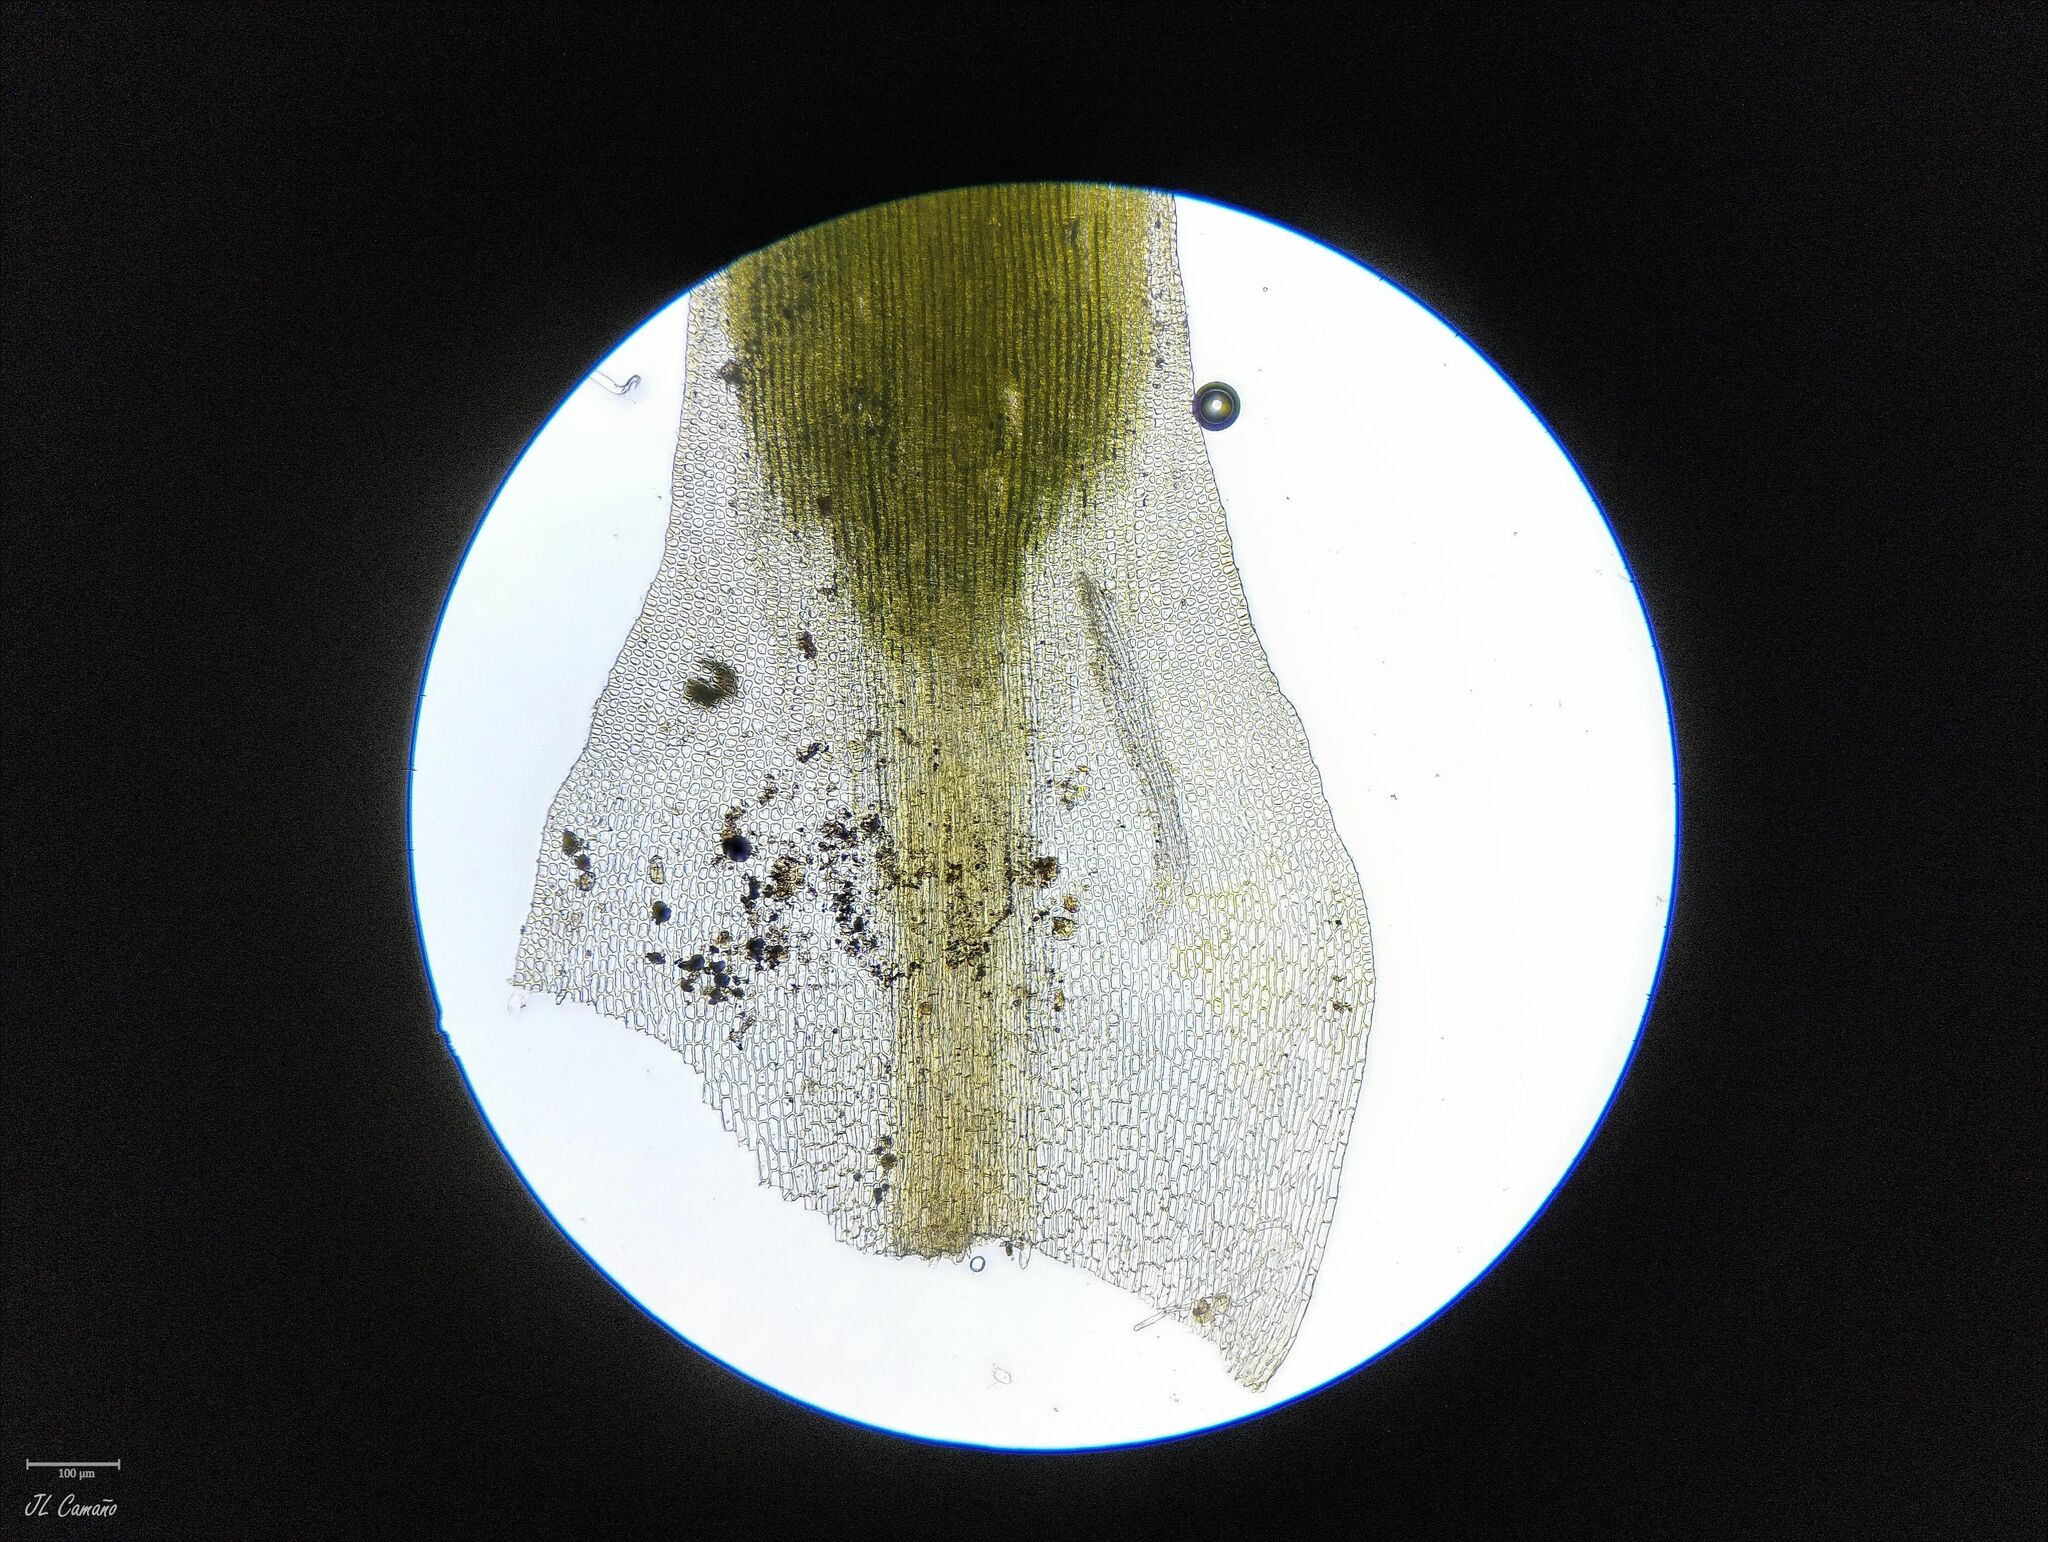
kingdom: Plantae
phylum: Bryophyta
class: Polytrichopsida
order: Polytrichales
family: Polytrichaceae
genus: Pogonatum
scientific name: Pogonatum nanum
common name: Dwarf haircap
